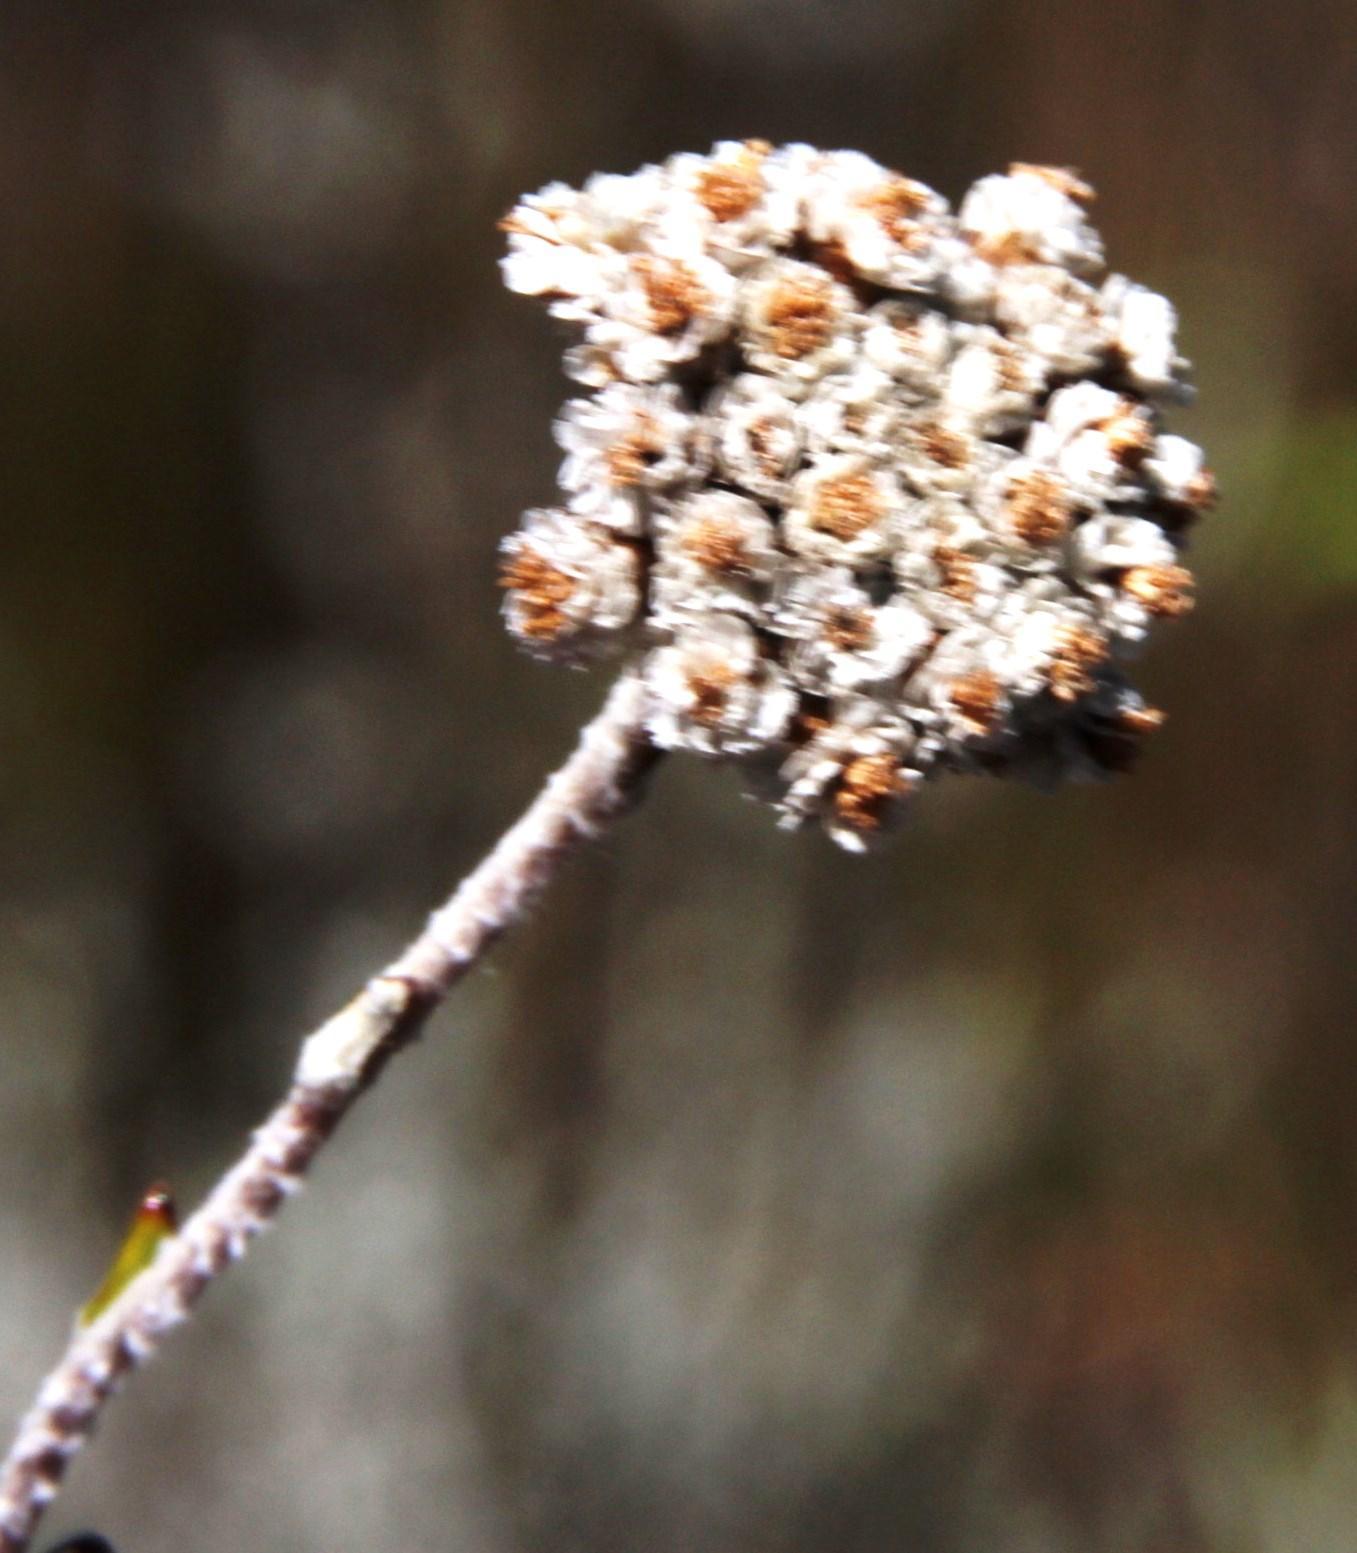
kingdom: Plantae
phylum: Tracheophyta
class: Magnoliopsida
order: Asterales
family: Asteraceae
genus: Anaxeton
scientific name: Anaxeton brevipes
